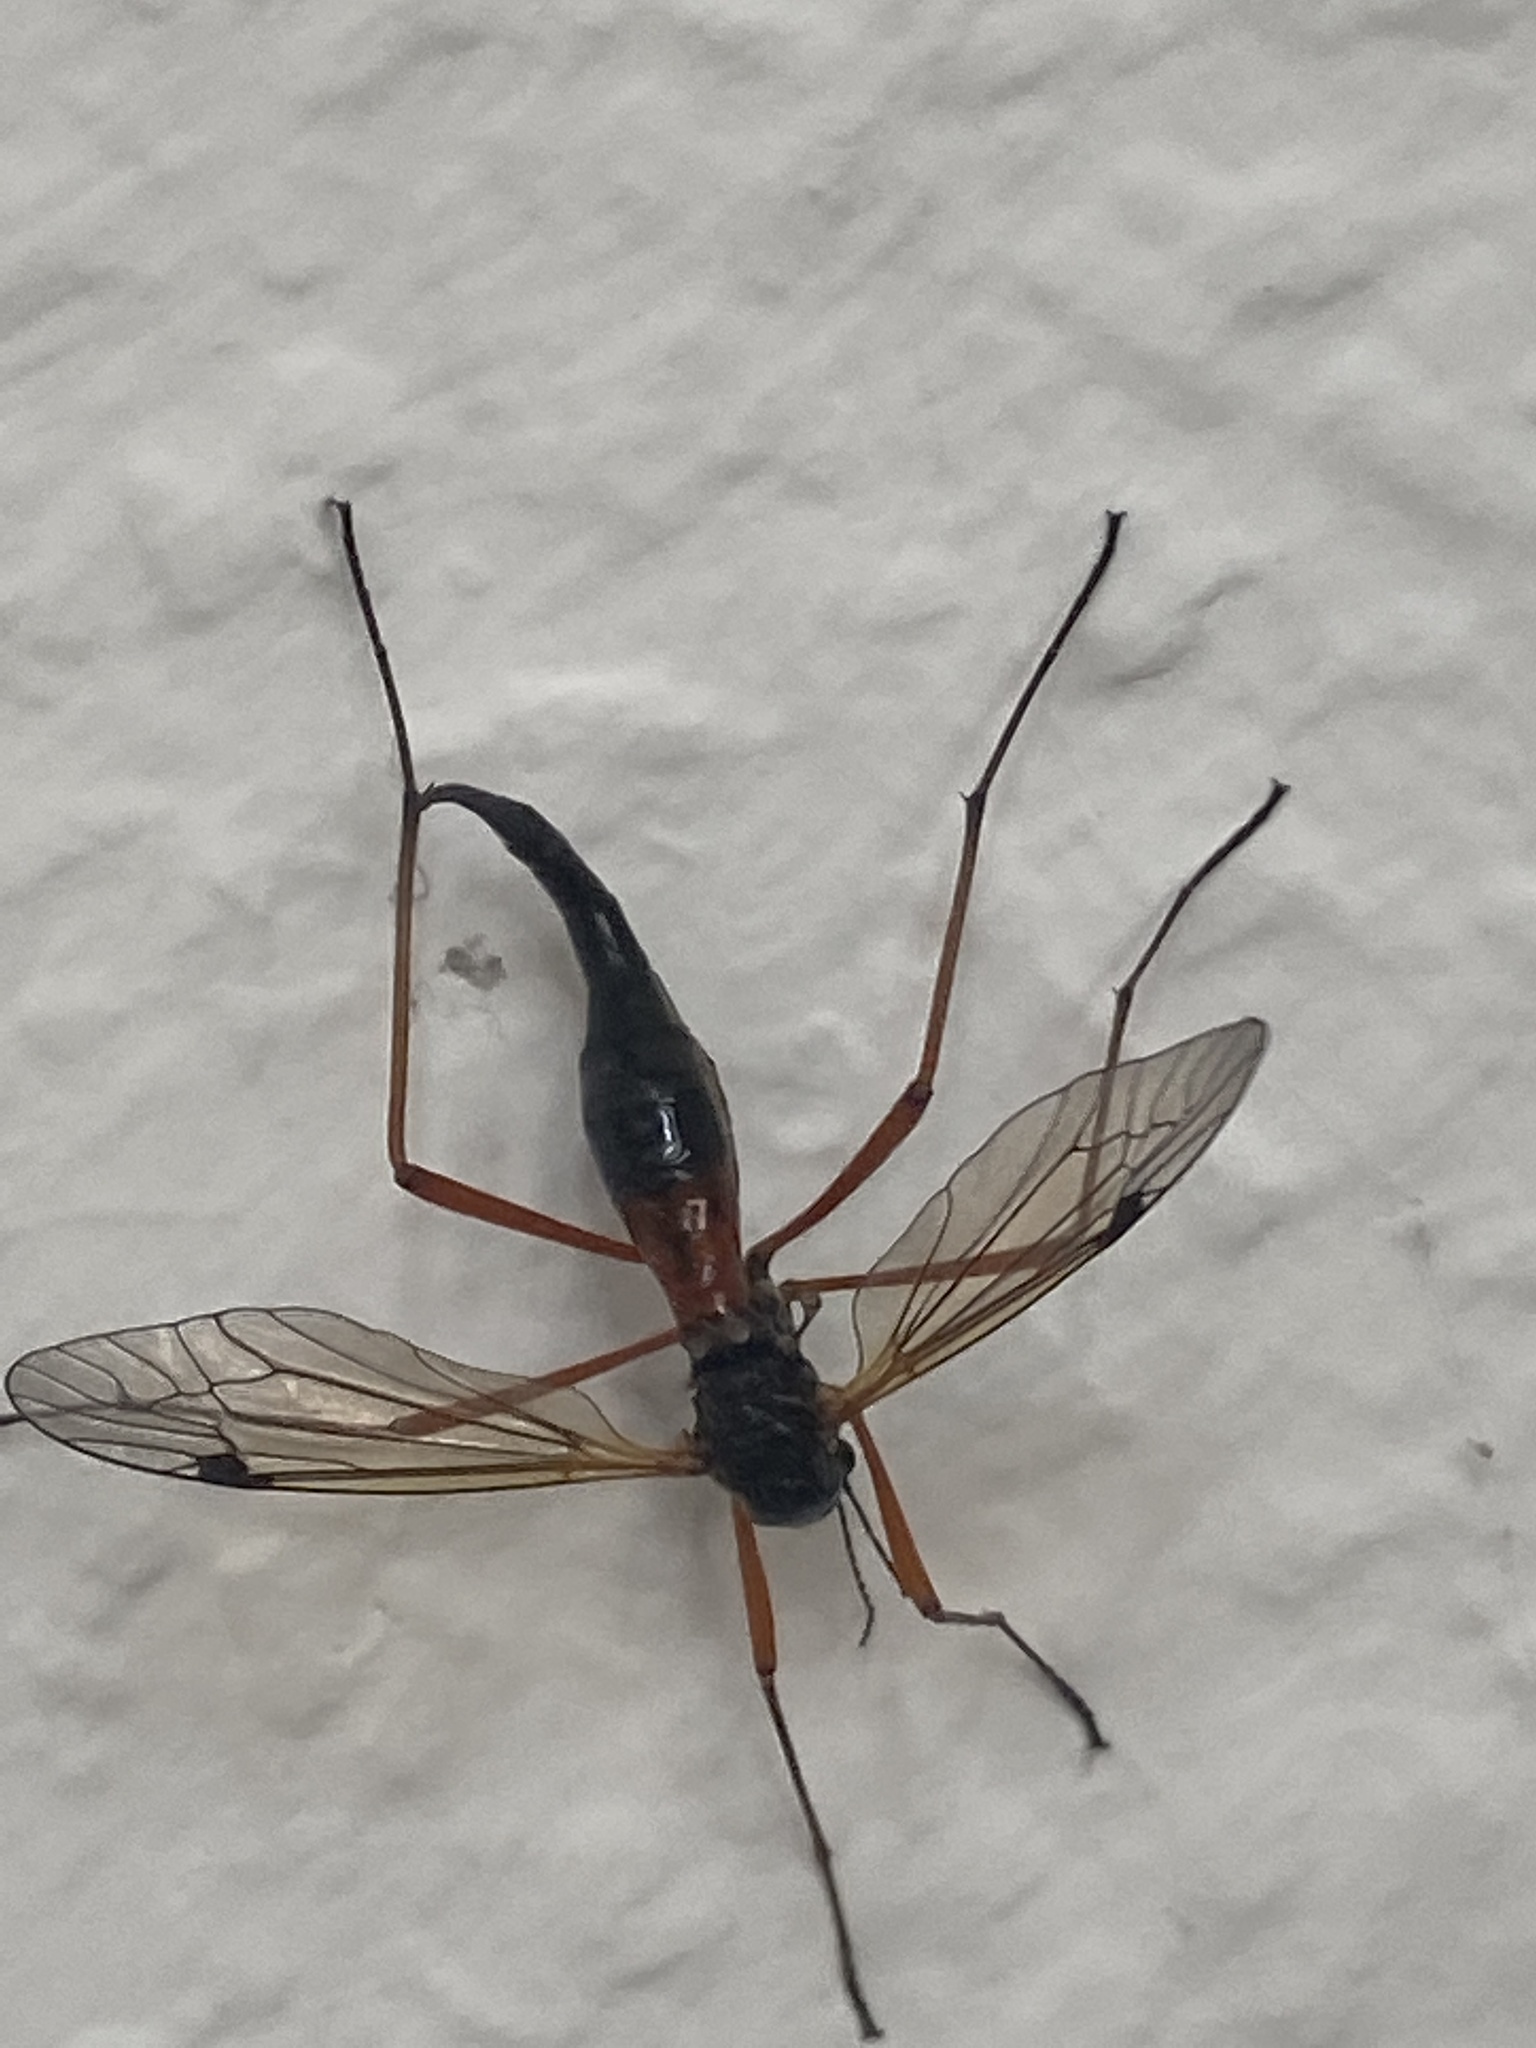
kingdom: Animalia
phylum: Arthropoda
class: Insecta
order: Diptera
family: Tipulidae
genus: Tanyptera
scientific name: Tanyptera atrata
